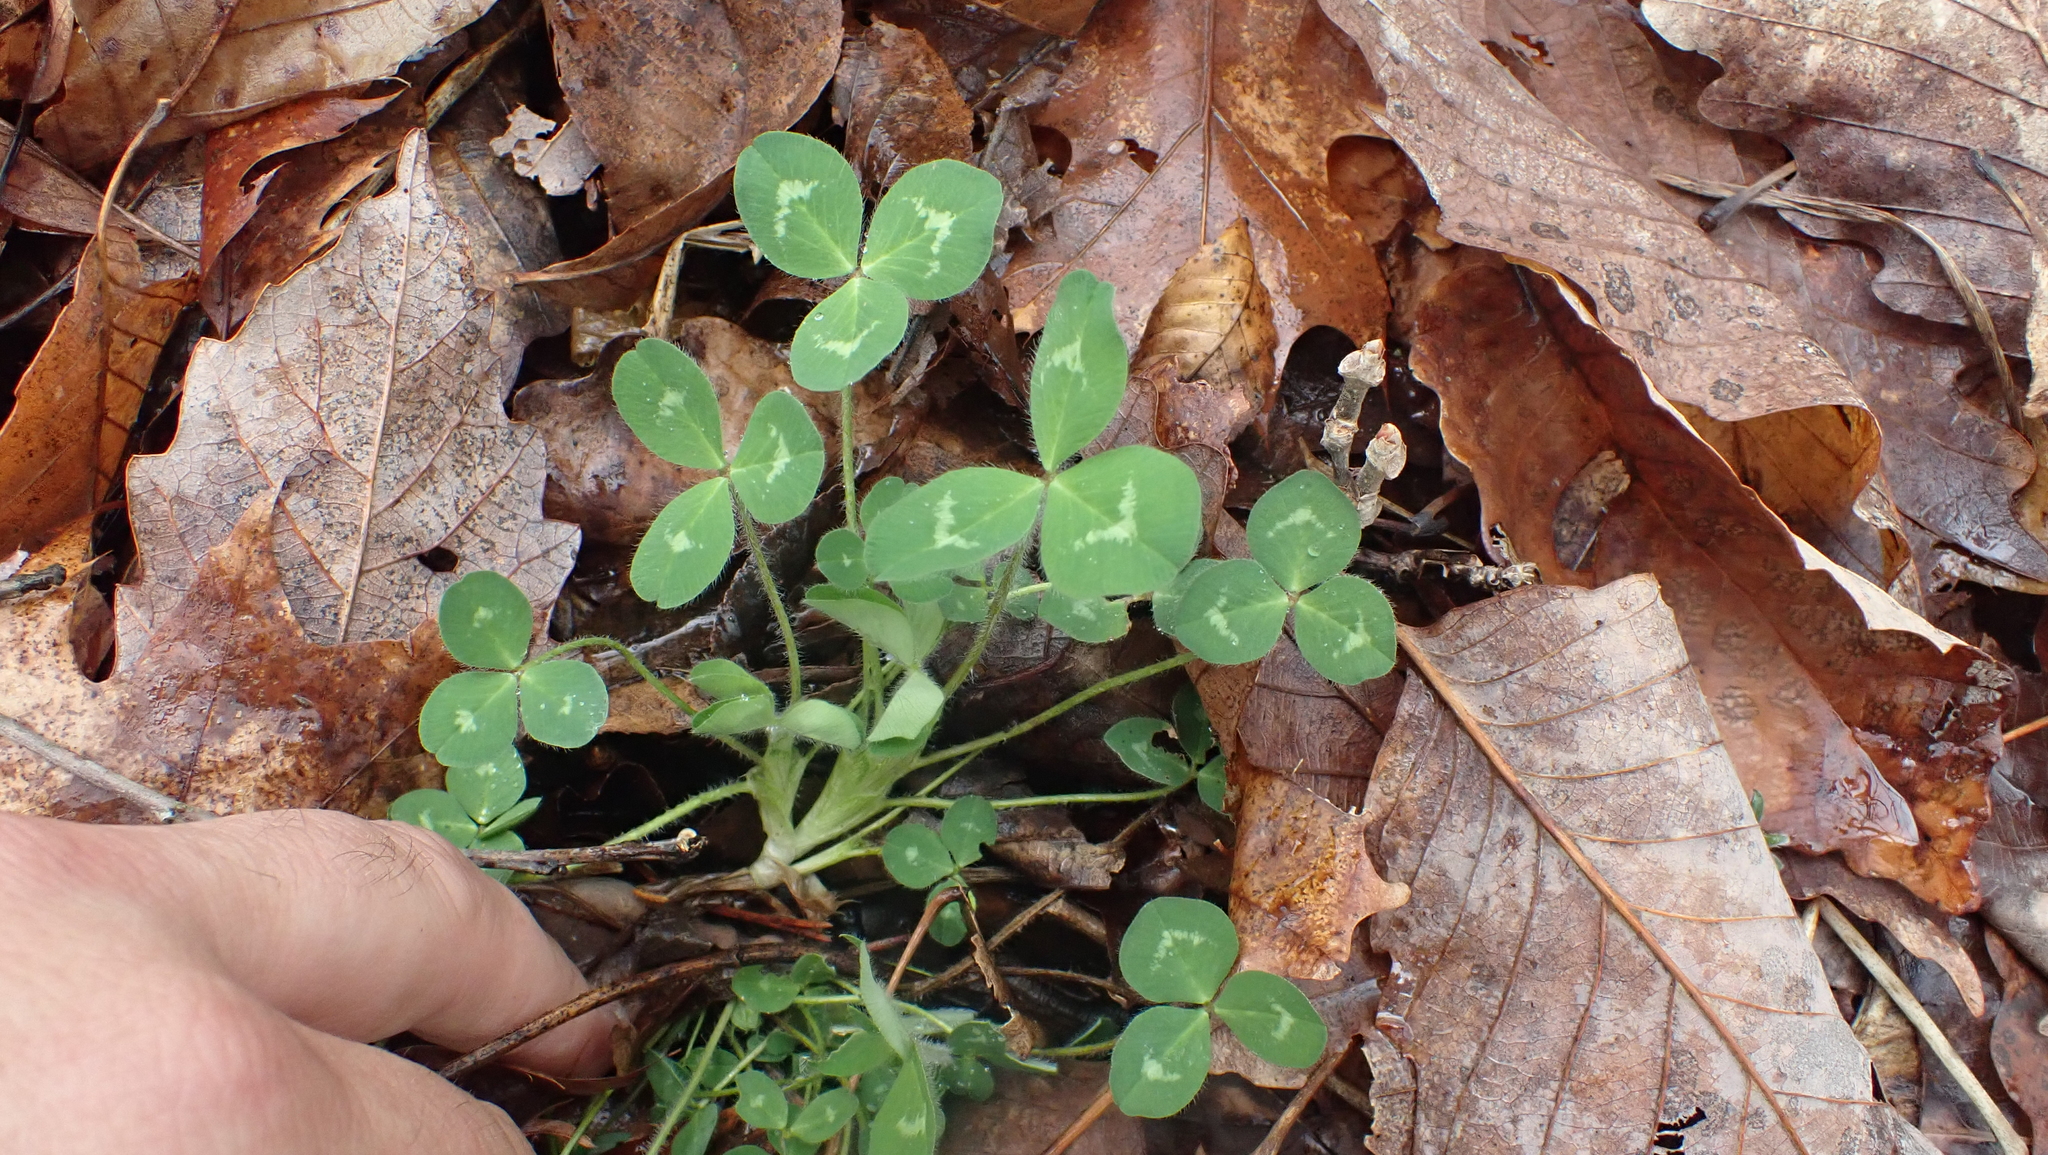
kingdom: Plantae
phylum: Tracheophyta
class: Magnoliopsida
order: Fabales
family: Fabaceae
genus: Trifolium
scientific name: Trifolium pratense
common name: Red clover
